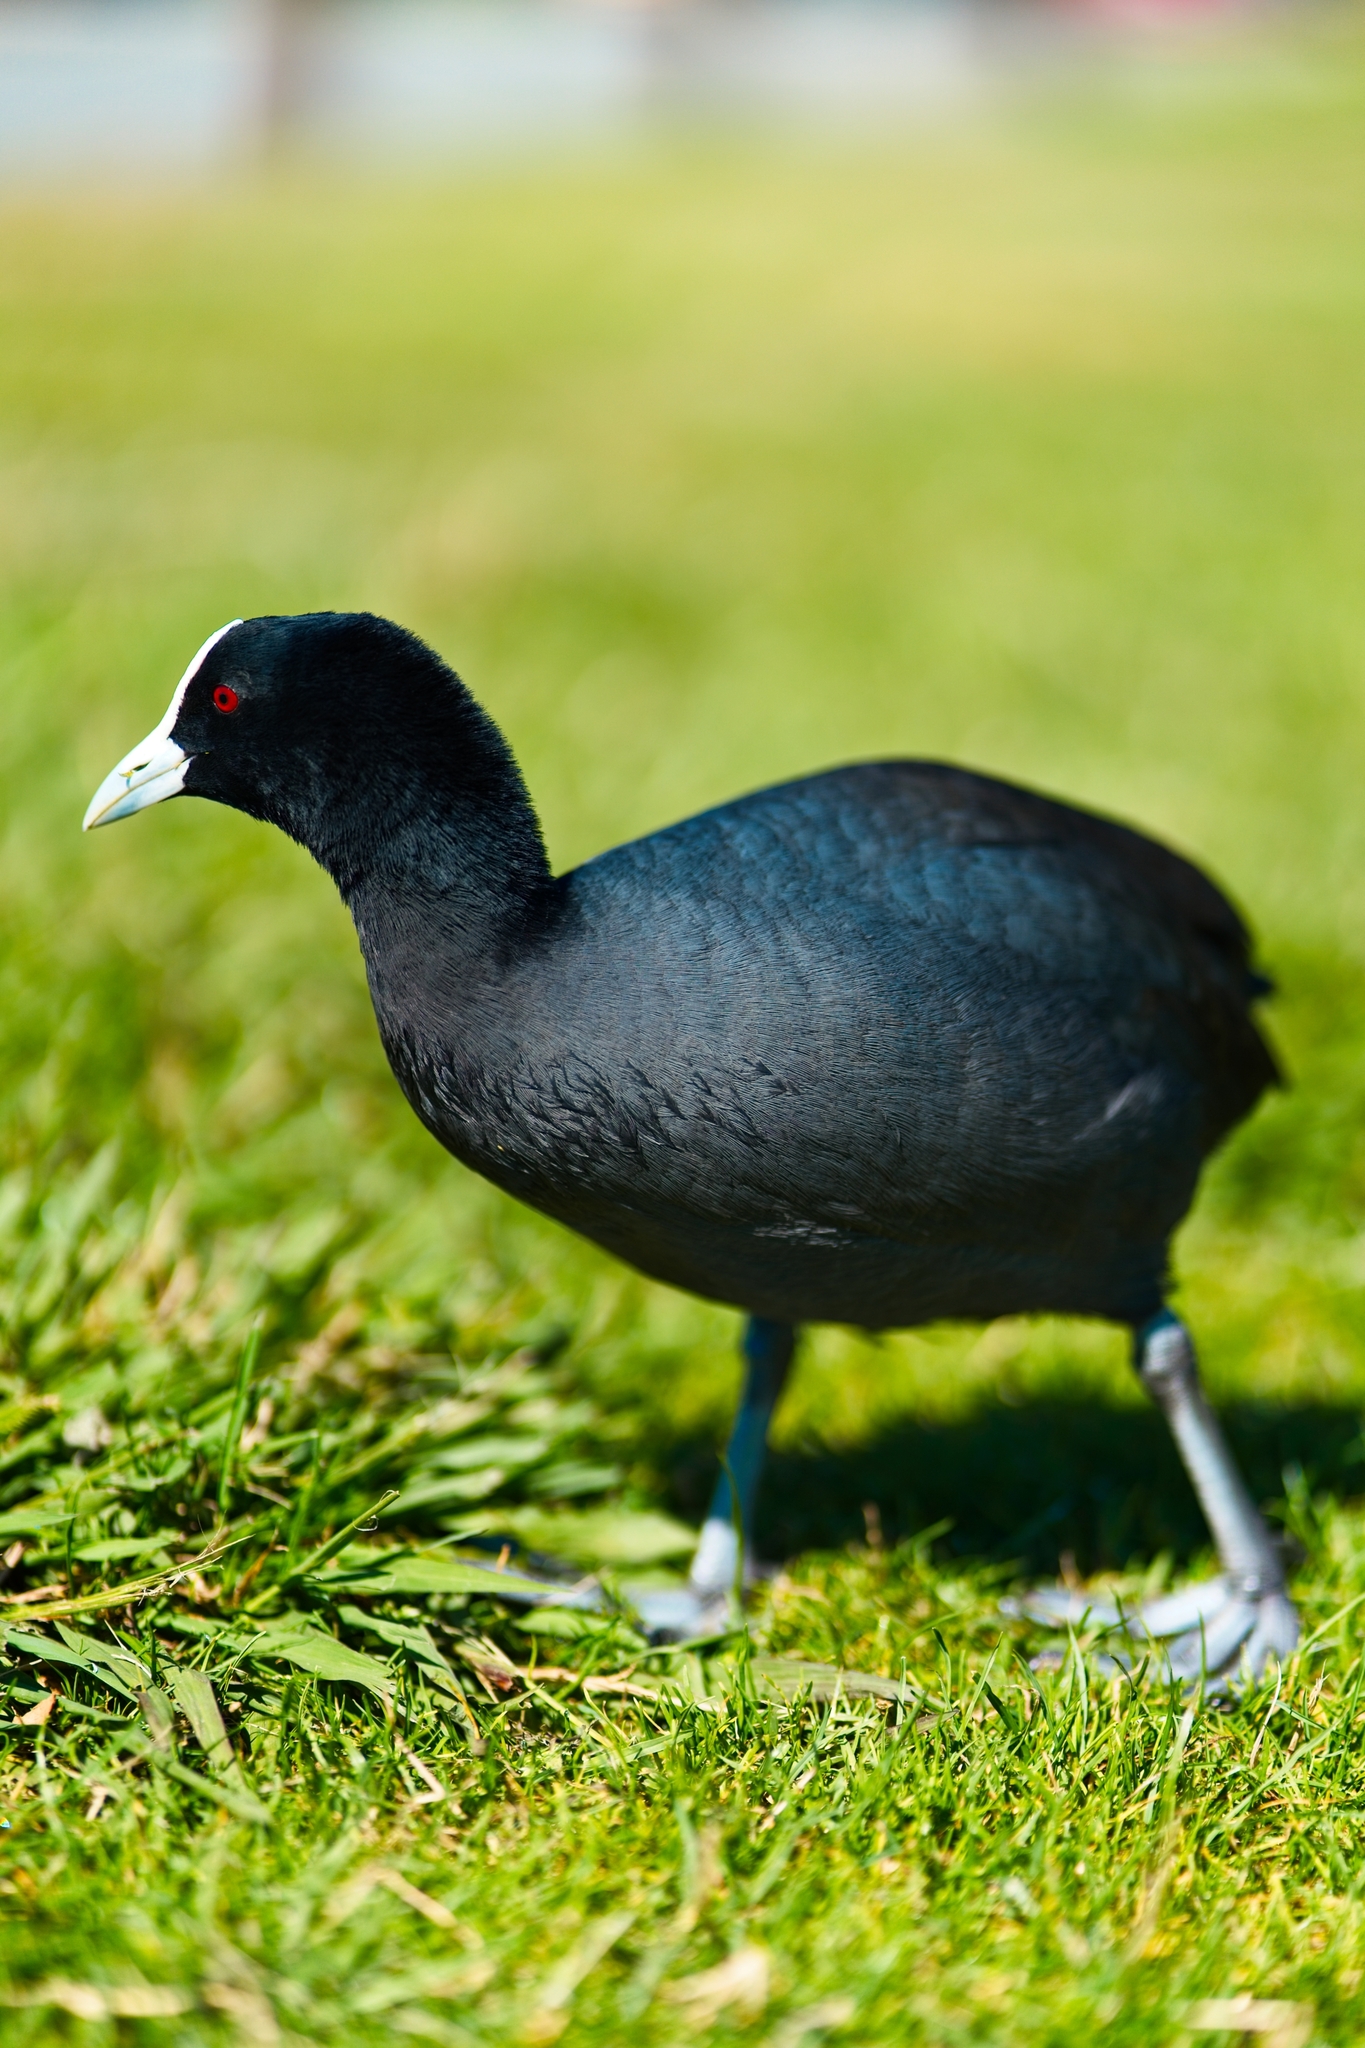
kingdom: Animalia
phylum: Chordata
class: Aves
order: Gruiformes
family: Rallidae
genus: Fulica
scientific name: Fulica atra
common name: Eurasian coot
